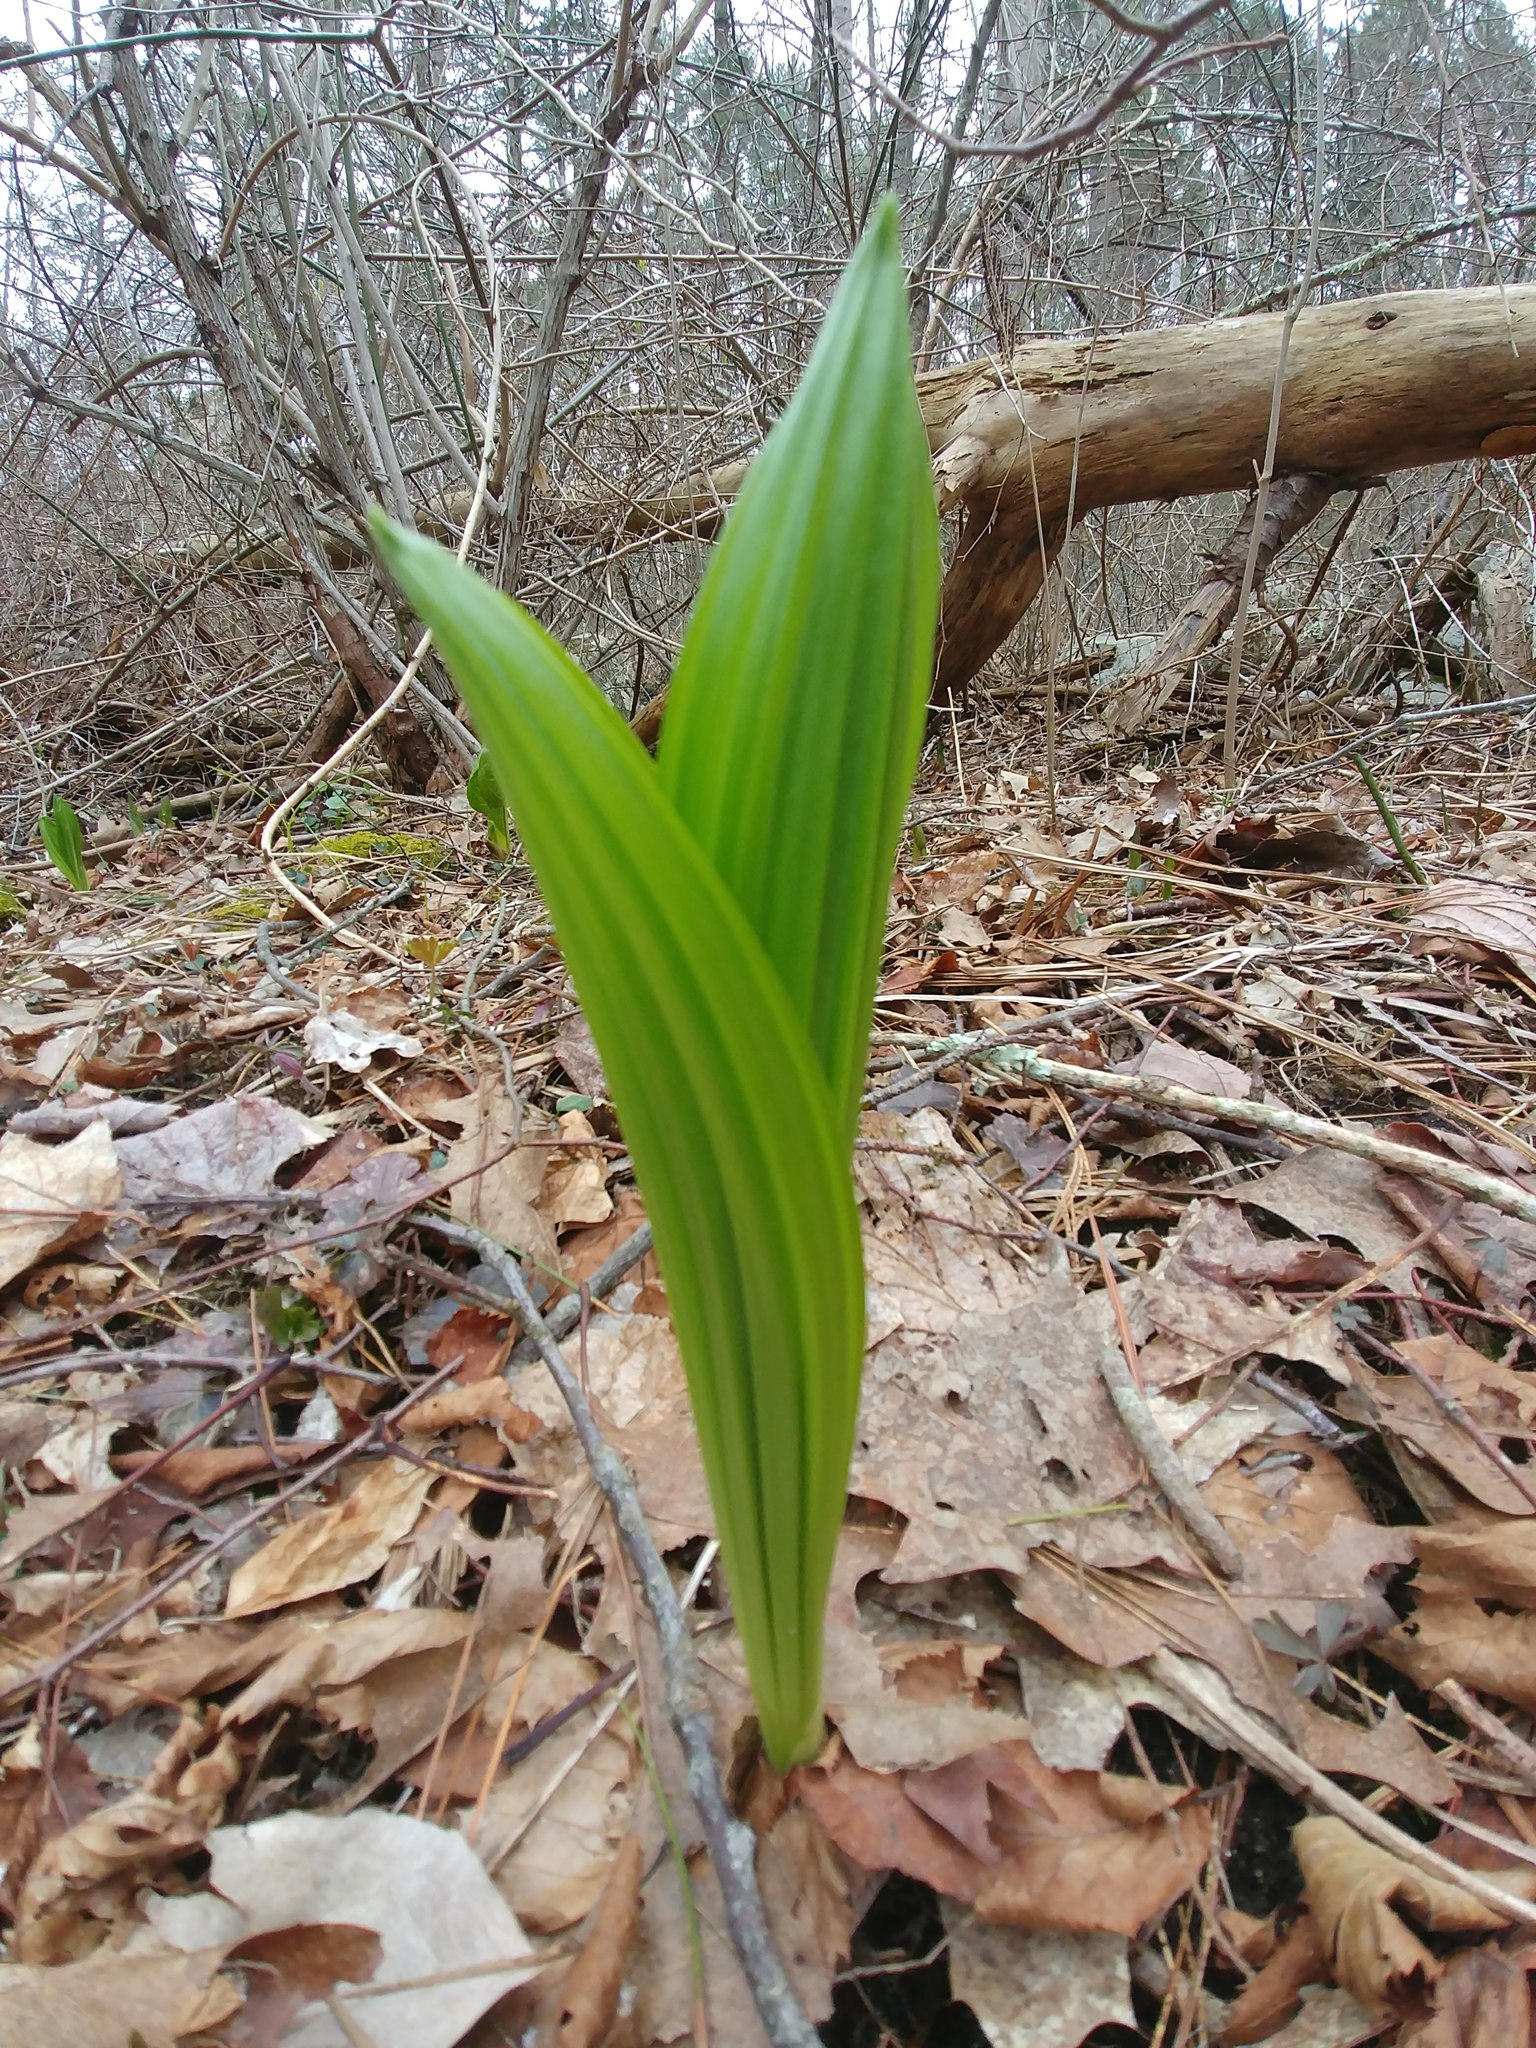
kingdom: Plantae
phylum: Tracheophyta
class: Liliopsida
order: Liliales
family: Melanthiaceae
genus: Veratrum
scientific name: Veratrum viride
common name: American false hellebore
